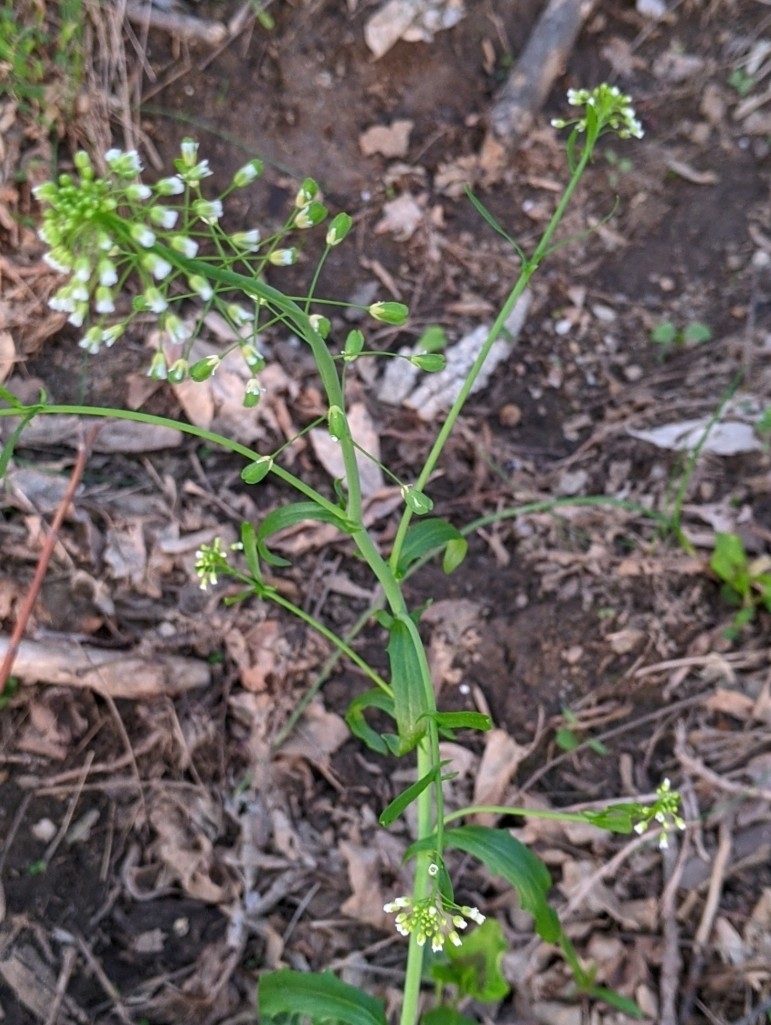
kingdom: Plantae
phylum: Tracheophyta
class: Magnoliopsida
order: Brassicales
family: Brassicaceae
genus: Mummenhoffia
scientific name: Mummenhoffia alliacea
